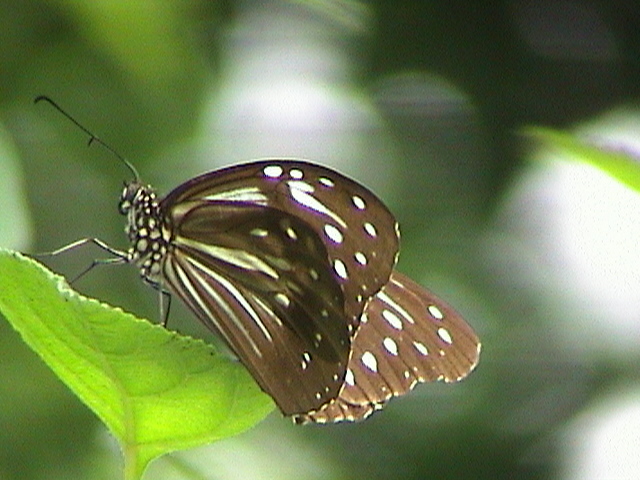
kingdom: Animalia
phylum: Arthropoda
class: Insecta
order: Lepidoptera
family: Nymphalidae
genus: Parantica
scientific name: Parantica nilgiriensis
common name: Nilgiri tiger
